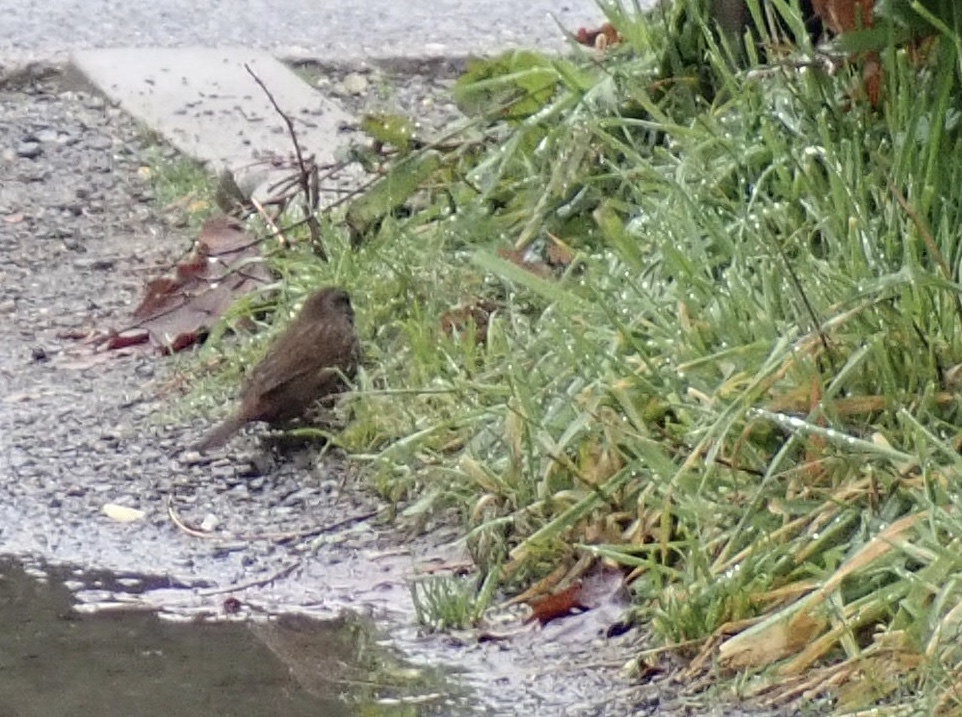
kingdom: Animalia
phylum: Chordata
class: Aves
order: Passeriformes
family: Passerellidae
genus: Melospiza
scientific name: Melospiza melodia
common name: Song sparrow
